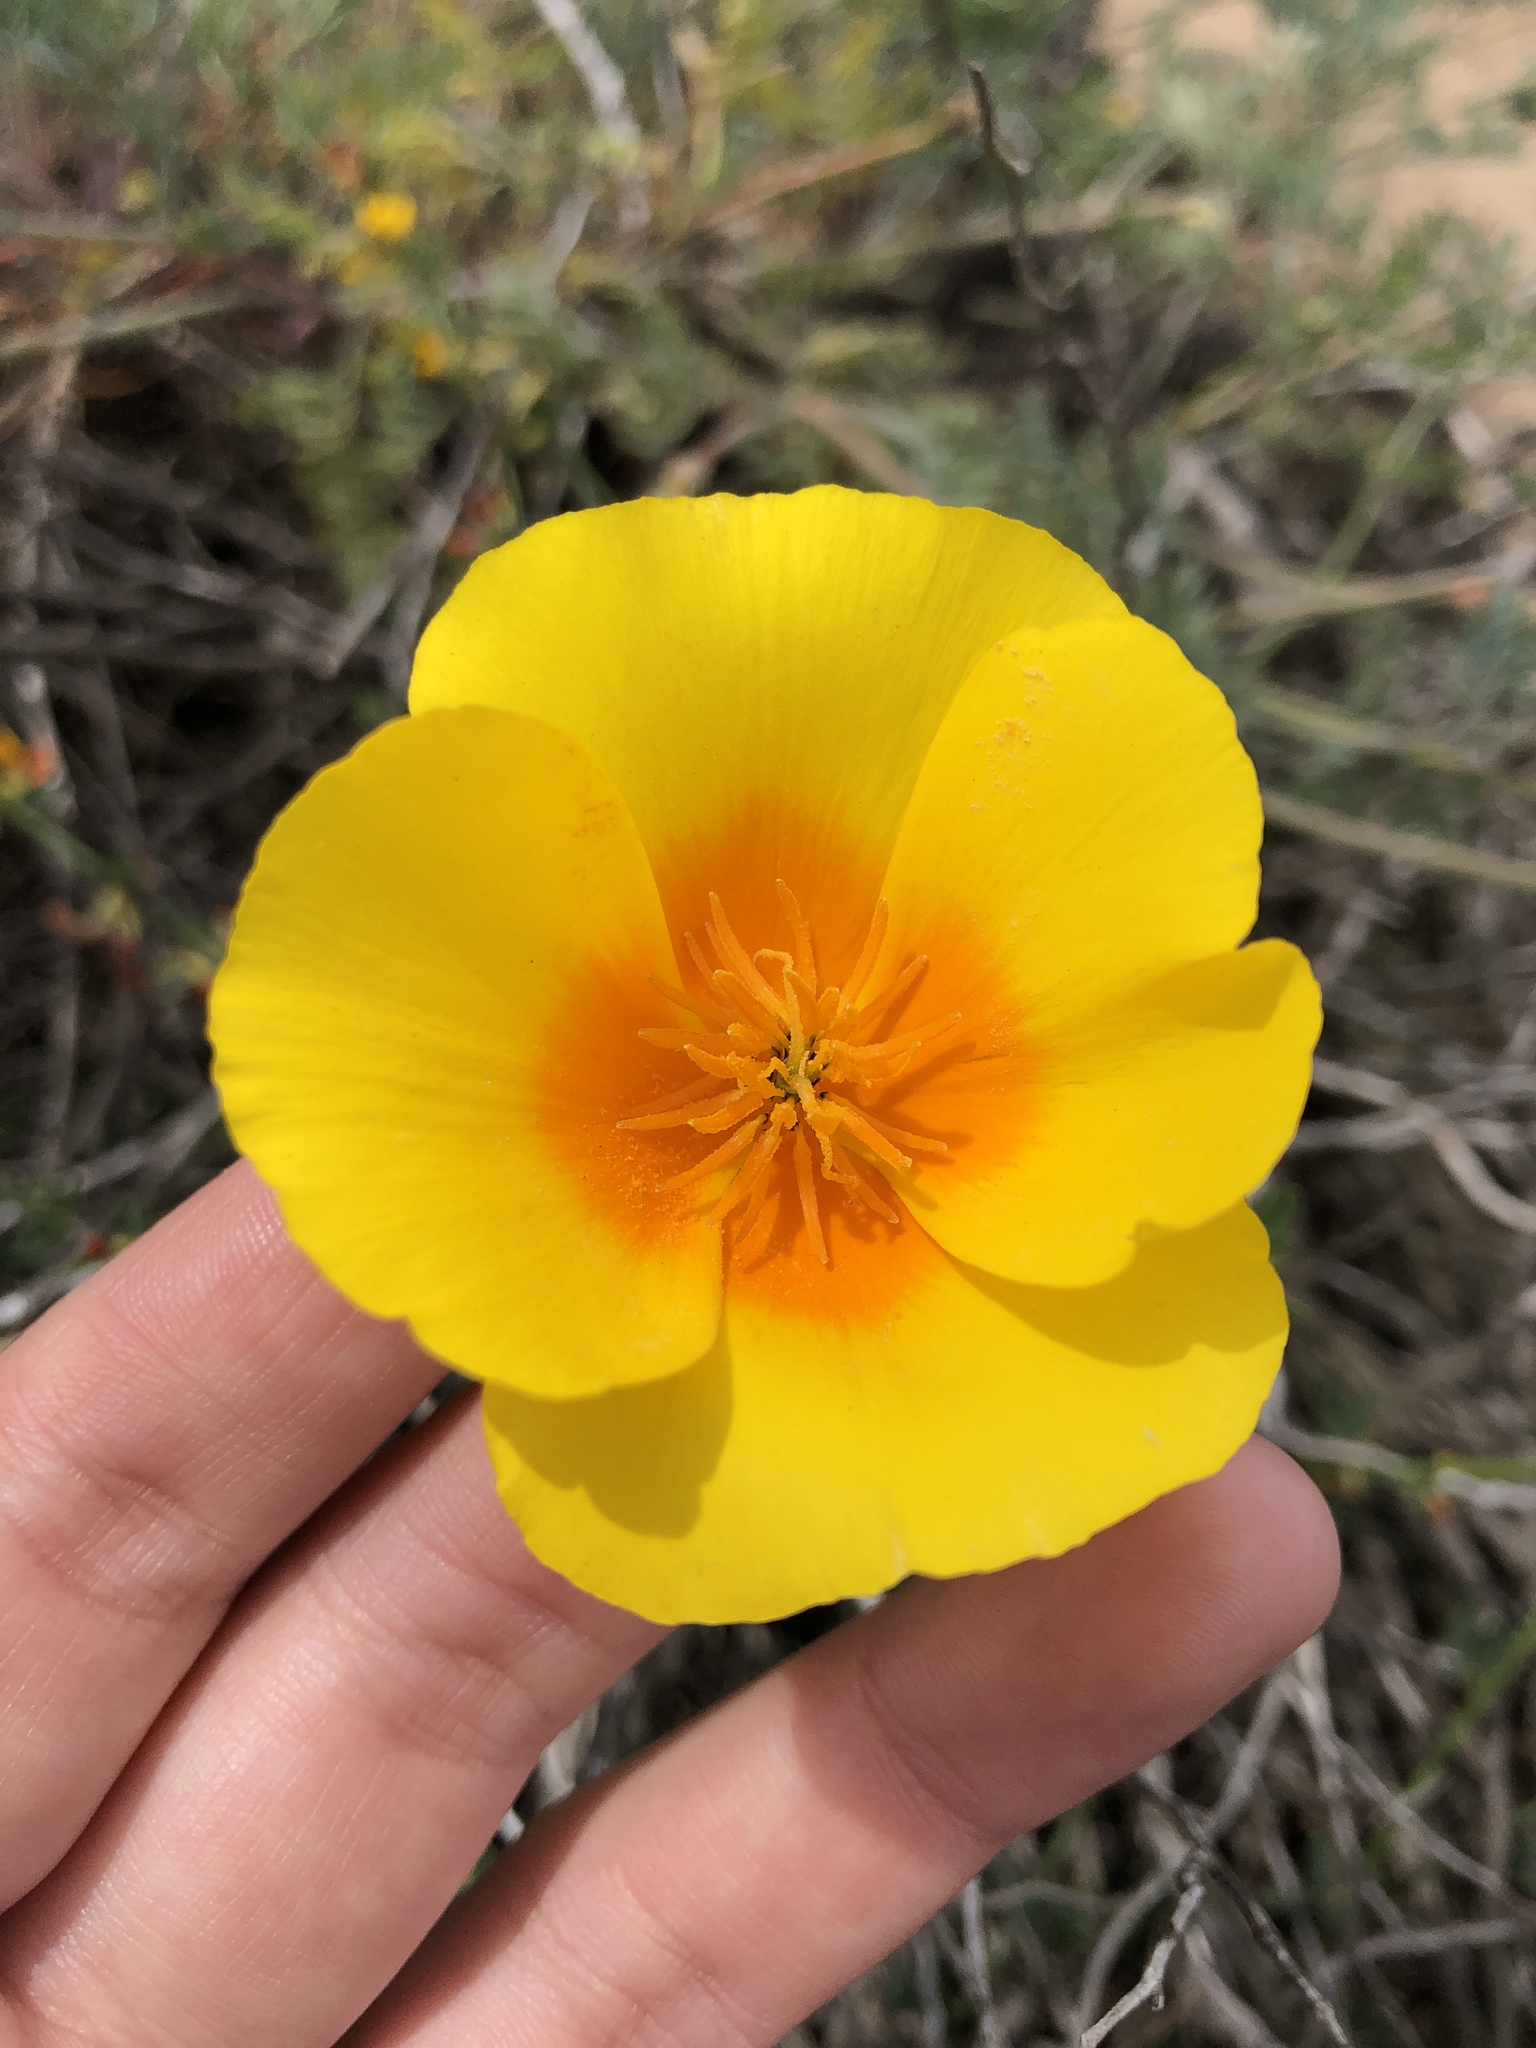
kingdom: Plantae
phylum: Tracheophyta
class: Magnoliopsida
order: Ranunculales
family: Papaveraceae
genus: Eschscholzia
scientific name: Eschscholzia californica
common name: California poppy
